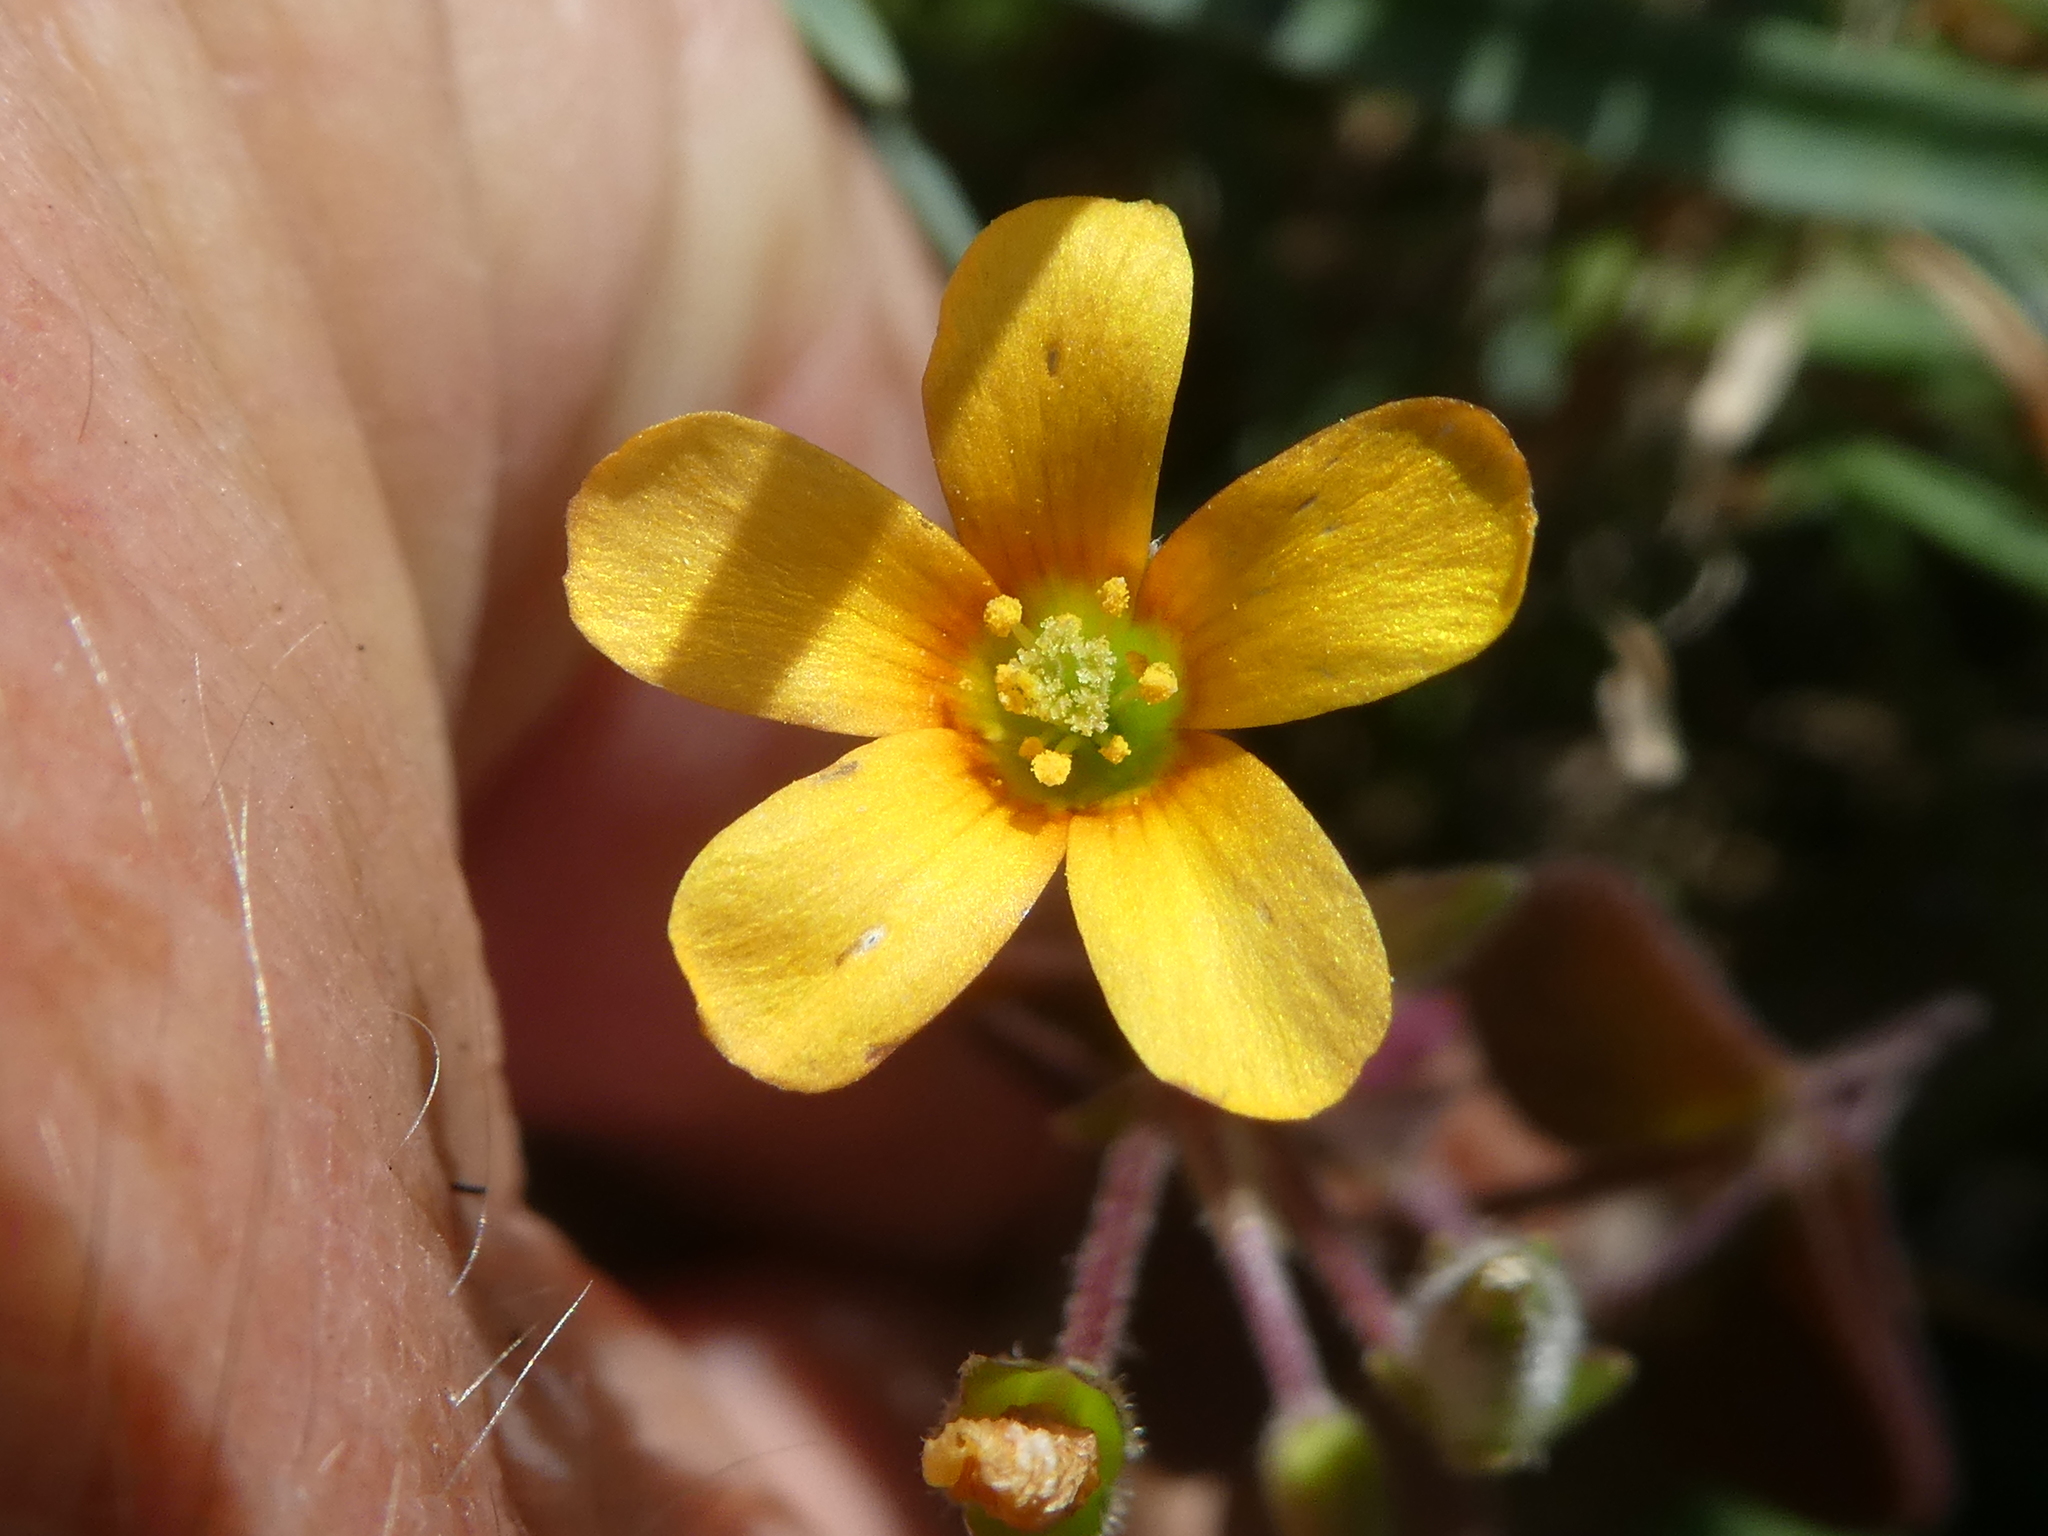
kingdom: Plantae
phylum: Tracheophyta
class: Magnoliopsida
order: Oxalidales
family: Oxalidaceae
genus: Oxalis
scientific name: Oxalis corniculata
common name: Procumbent yellow-sorrel
